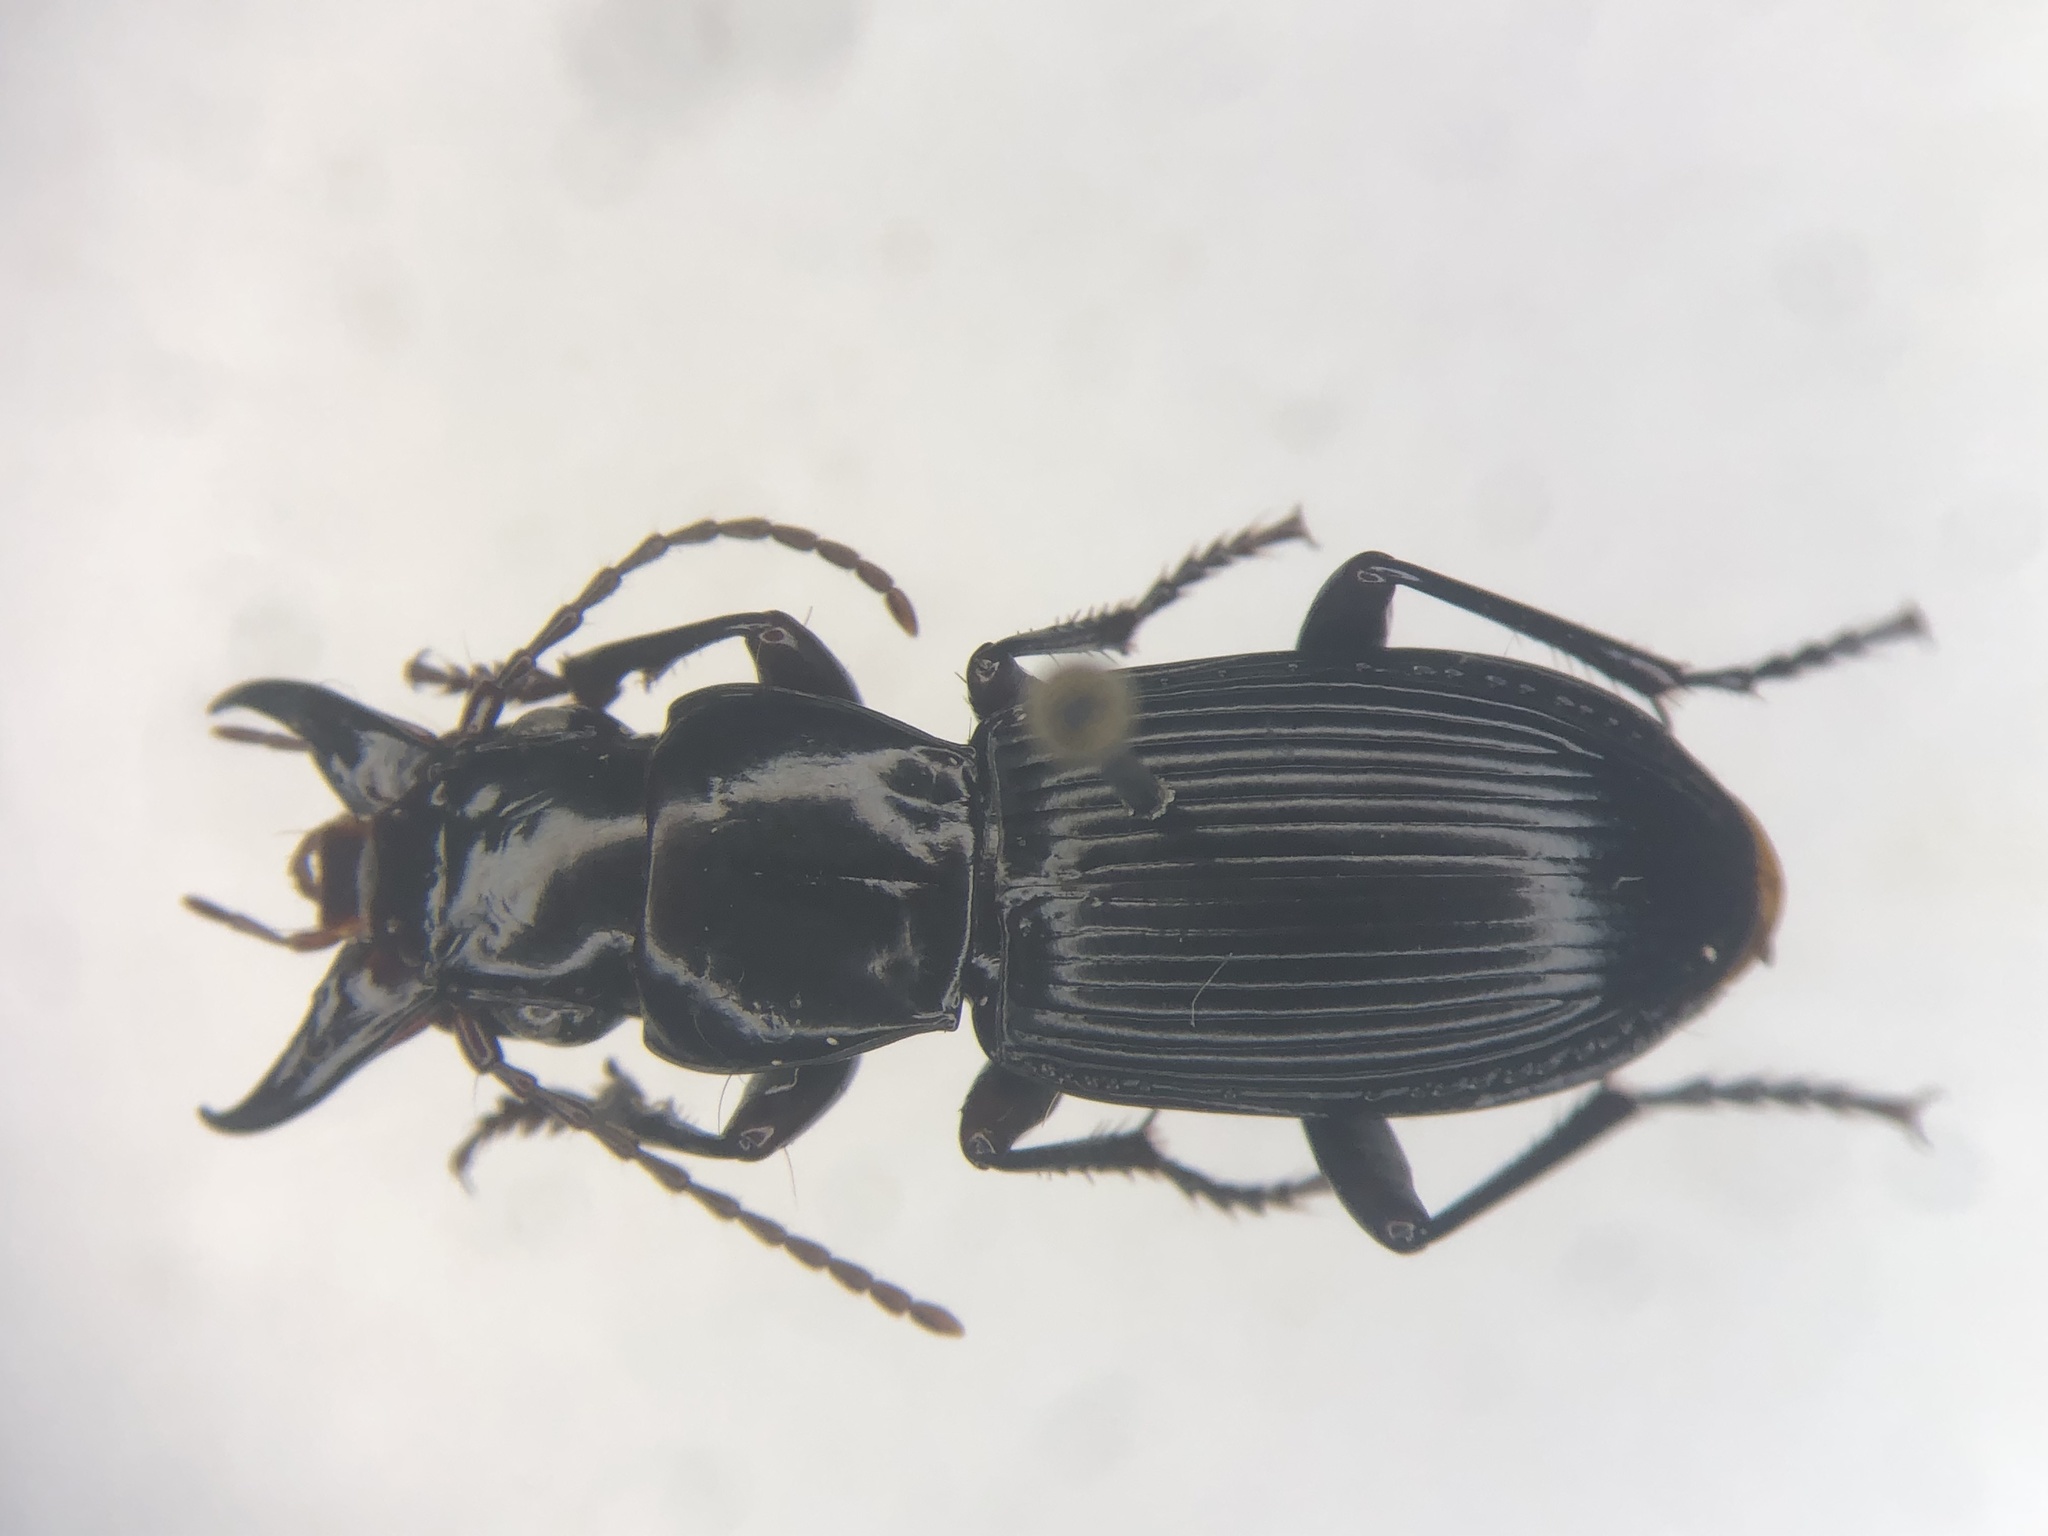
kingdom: Animalia
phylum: Arthropoda
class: Insecta
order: Coleoptera
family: Carabidae
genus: Pterostichus
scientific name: Pterostichus rostratus
